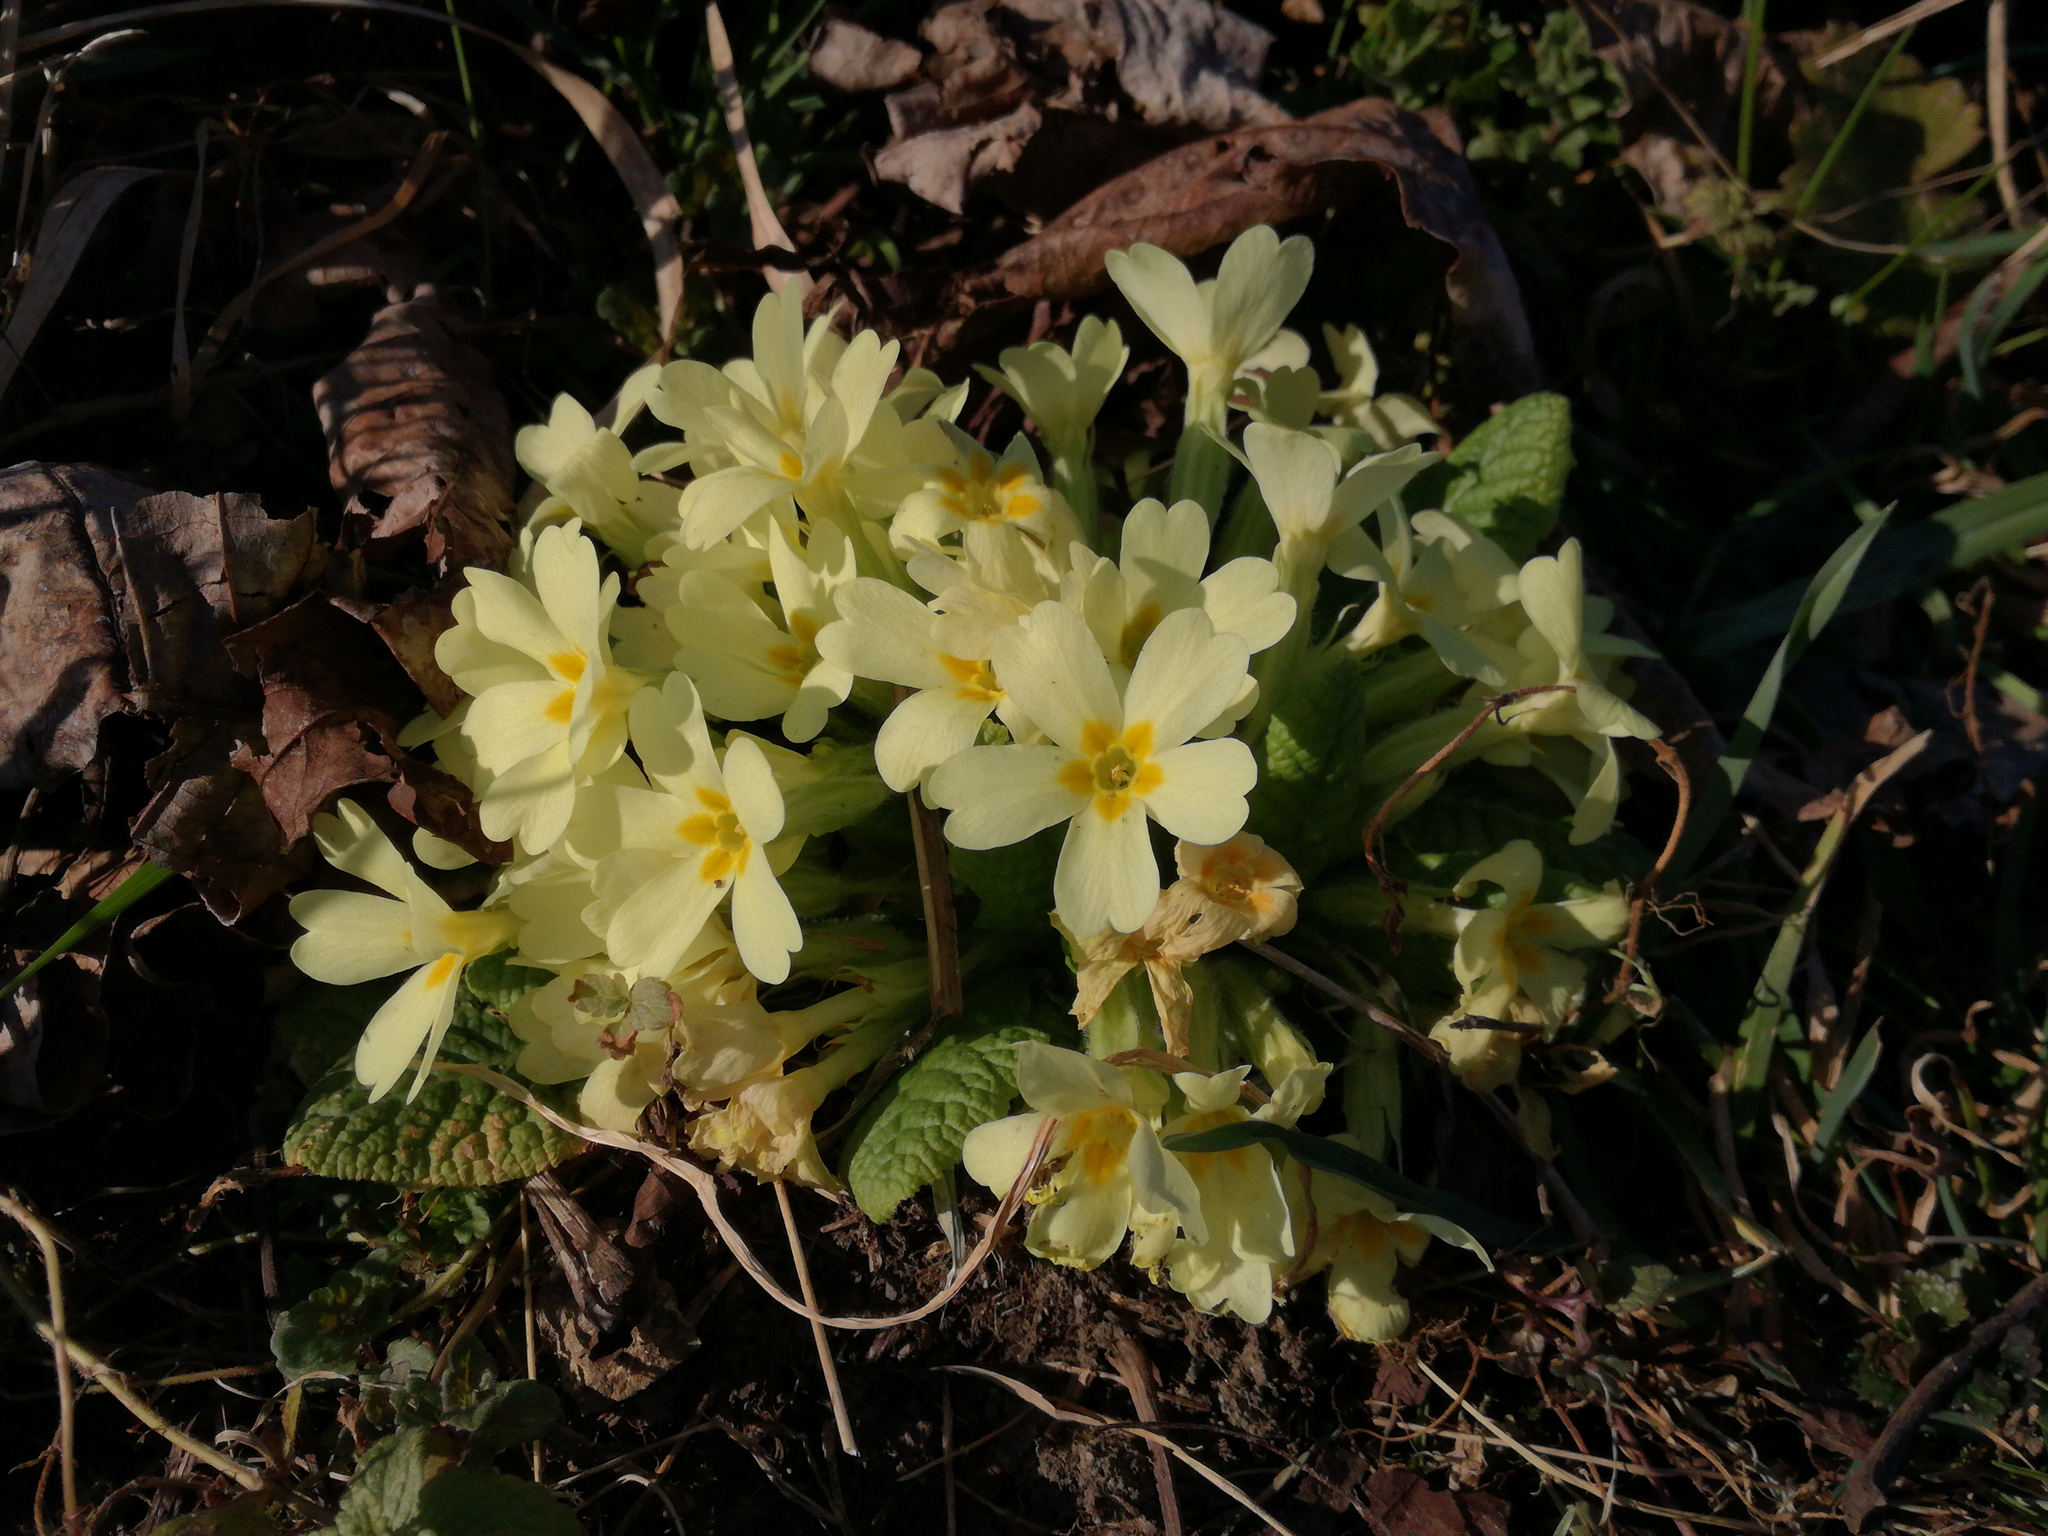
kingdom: Plantae
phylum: Tracheophyta
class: Magnoliopsida
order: Ericales
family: Primulaceae
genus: Primula
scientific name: Primula vulgaris
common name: Primrose
